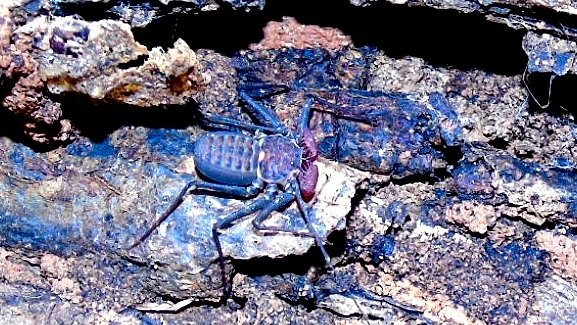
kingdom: Animalia
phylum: Arthropoda
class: Arachnida
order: Amblypygi
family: Phrynidae
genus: Phrynus
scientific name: Phrynus
